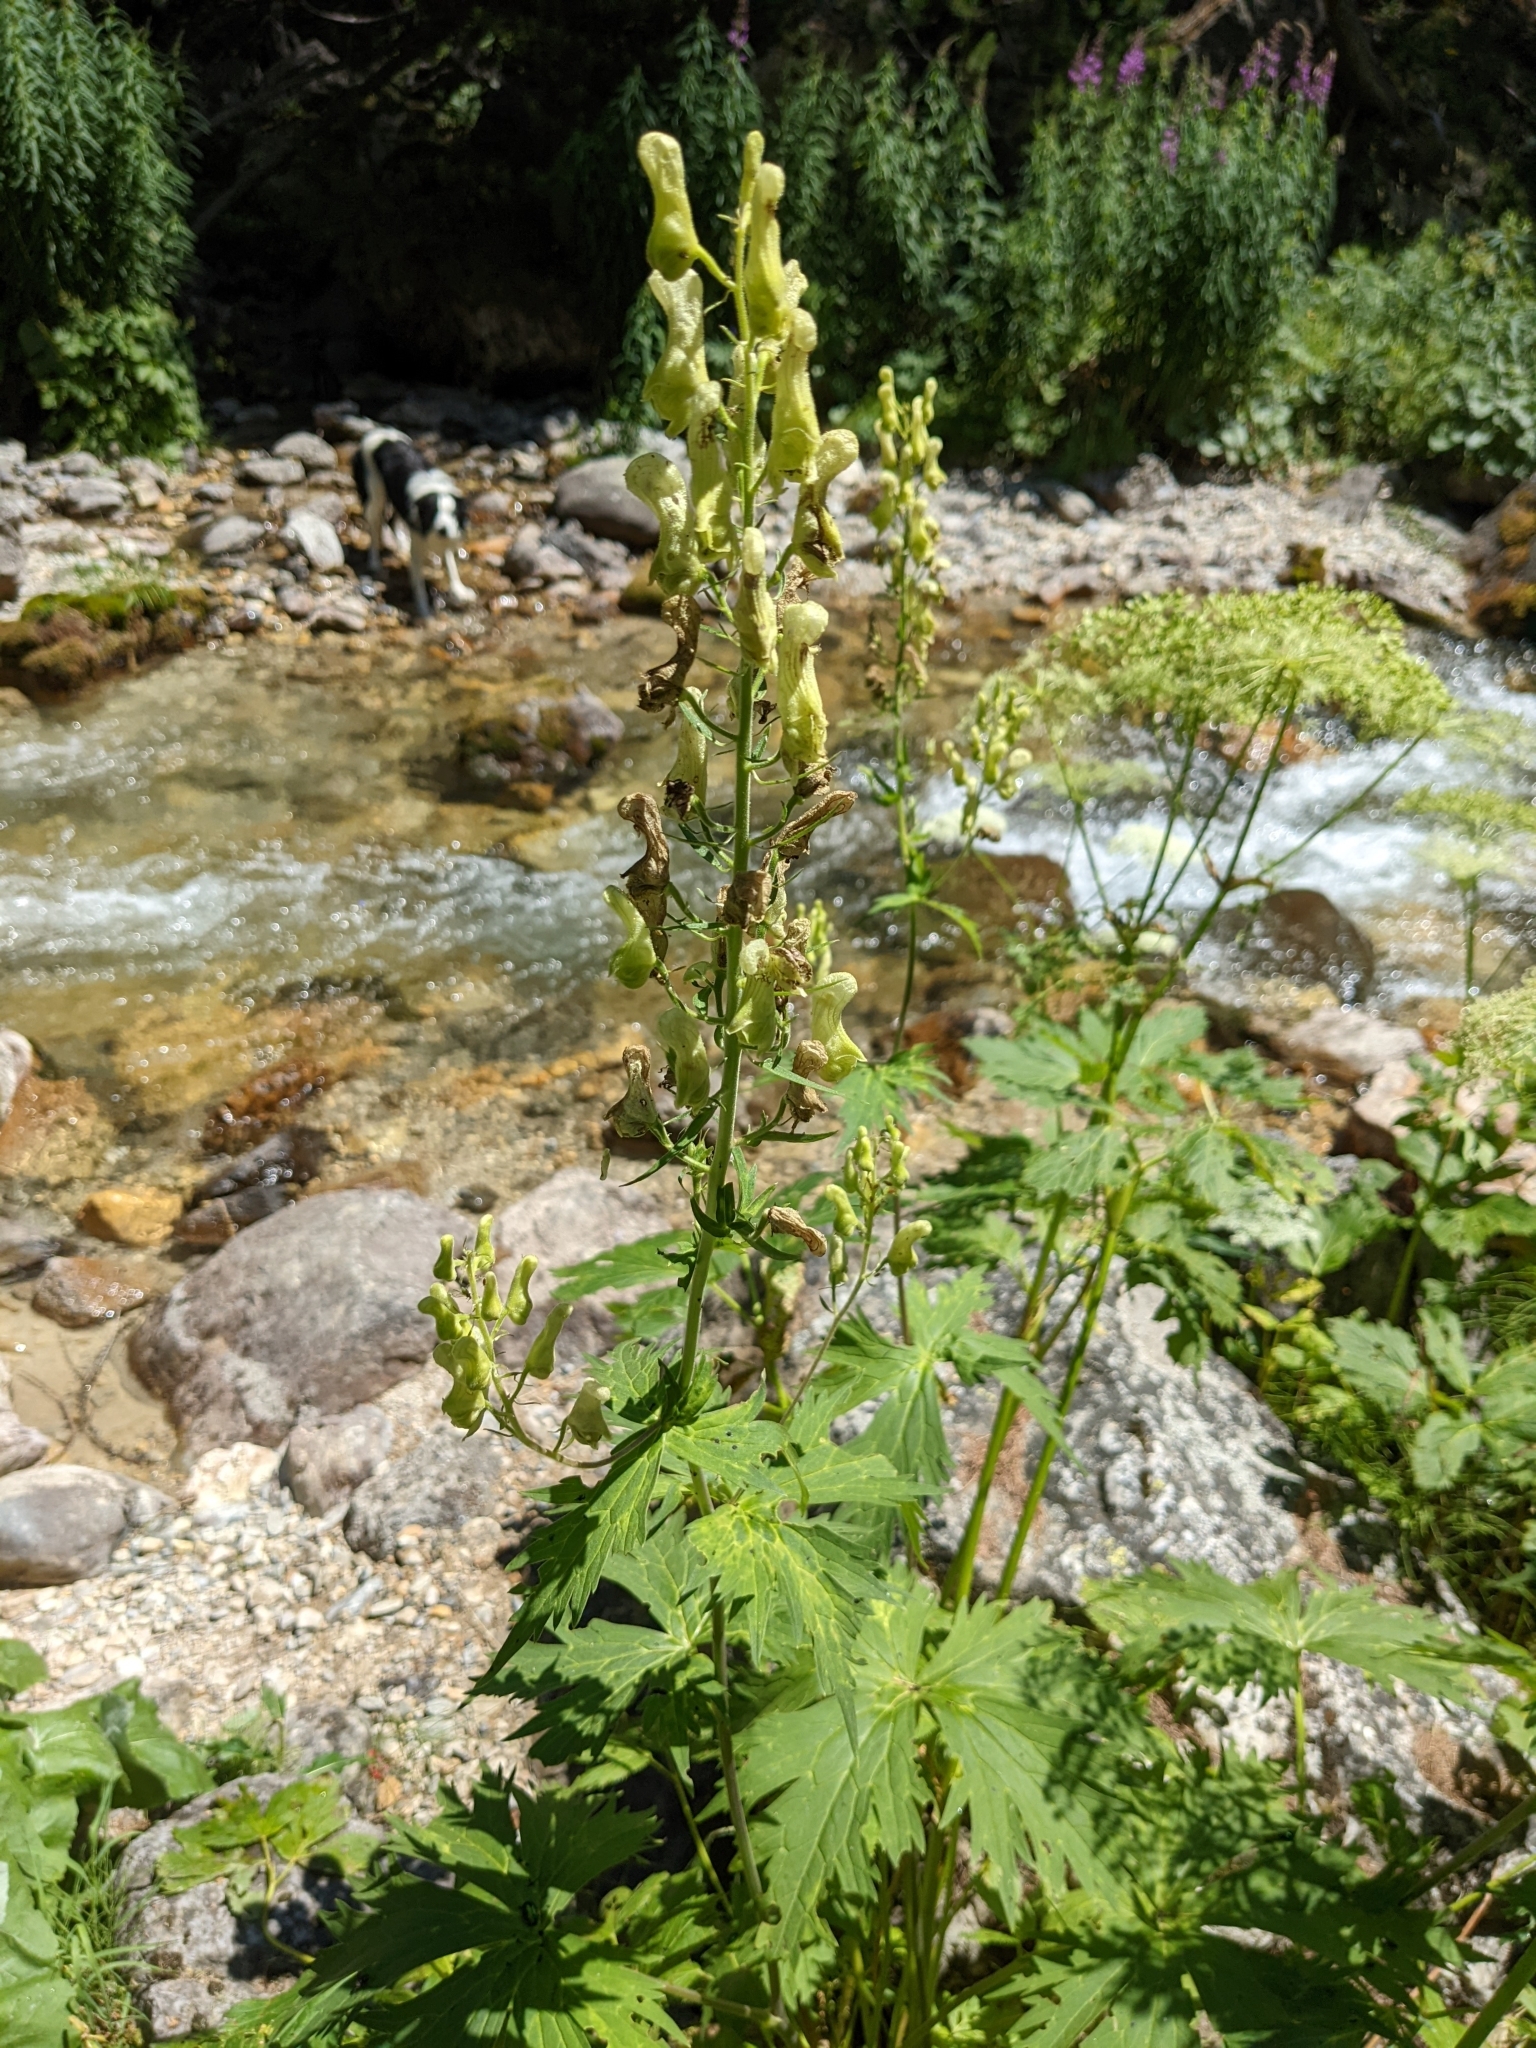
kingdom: Plantae
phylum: Tracheophyta
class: Magnoliopsida
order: Ranunculales
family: Ranunculaceae
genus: Aconitum
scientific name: Aconitum lycoctonum
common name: Wolf's-bane
